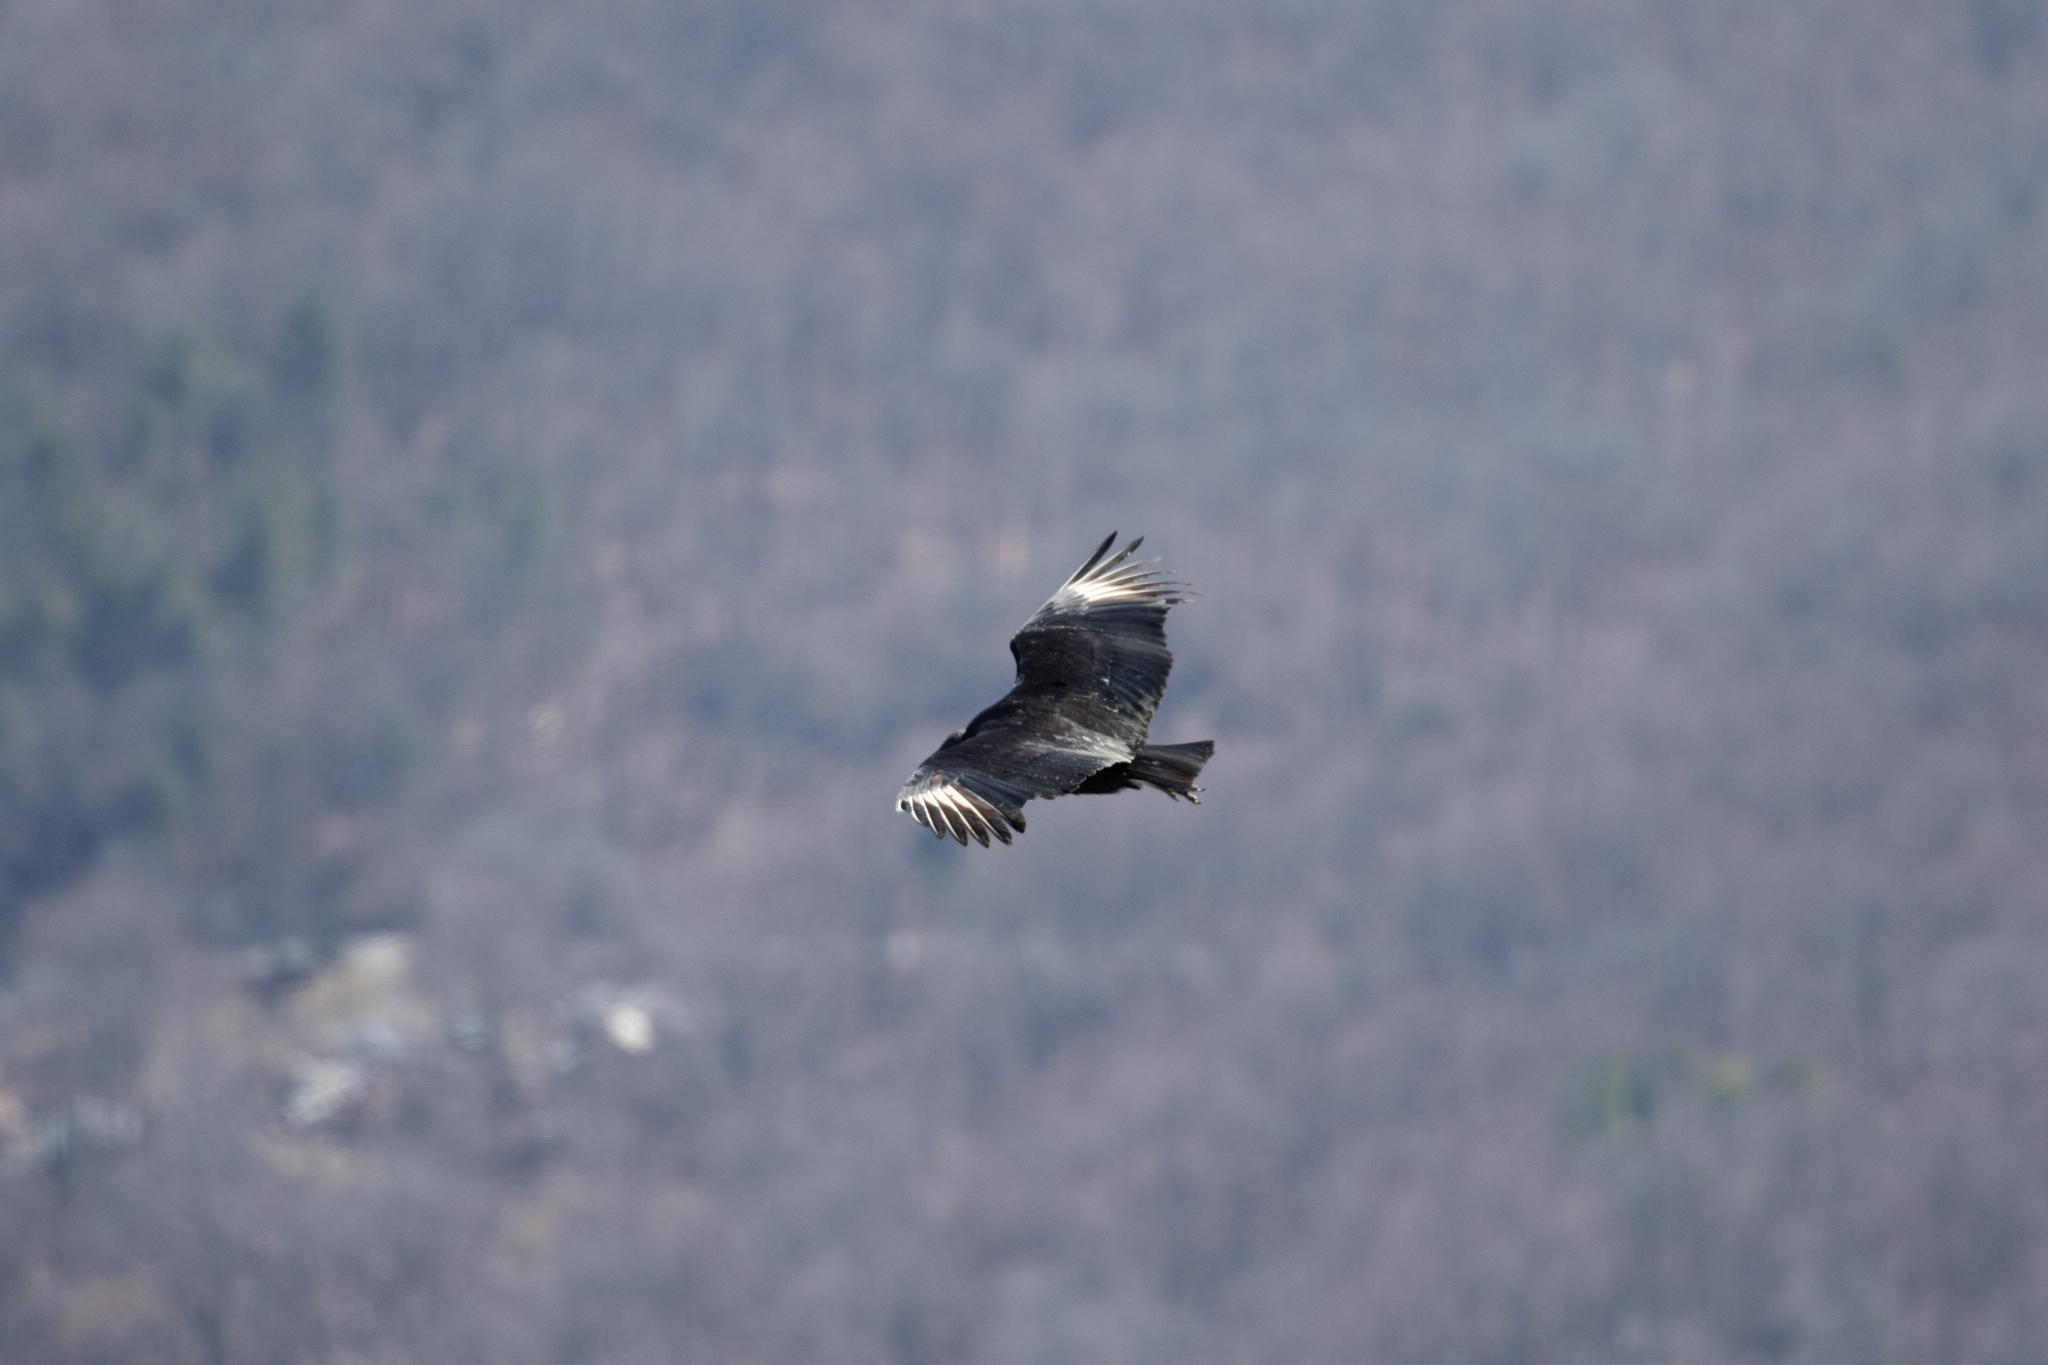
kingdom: Animalia
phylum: Chordata
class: Aves
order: Accipitriformes
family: Cathartidae
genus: Coragyps
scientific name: Coragyps atratus
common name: Black vulture
